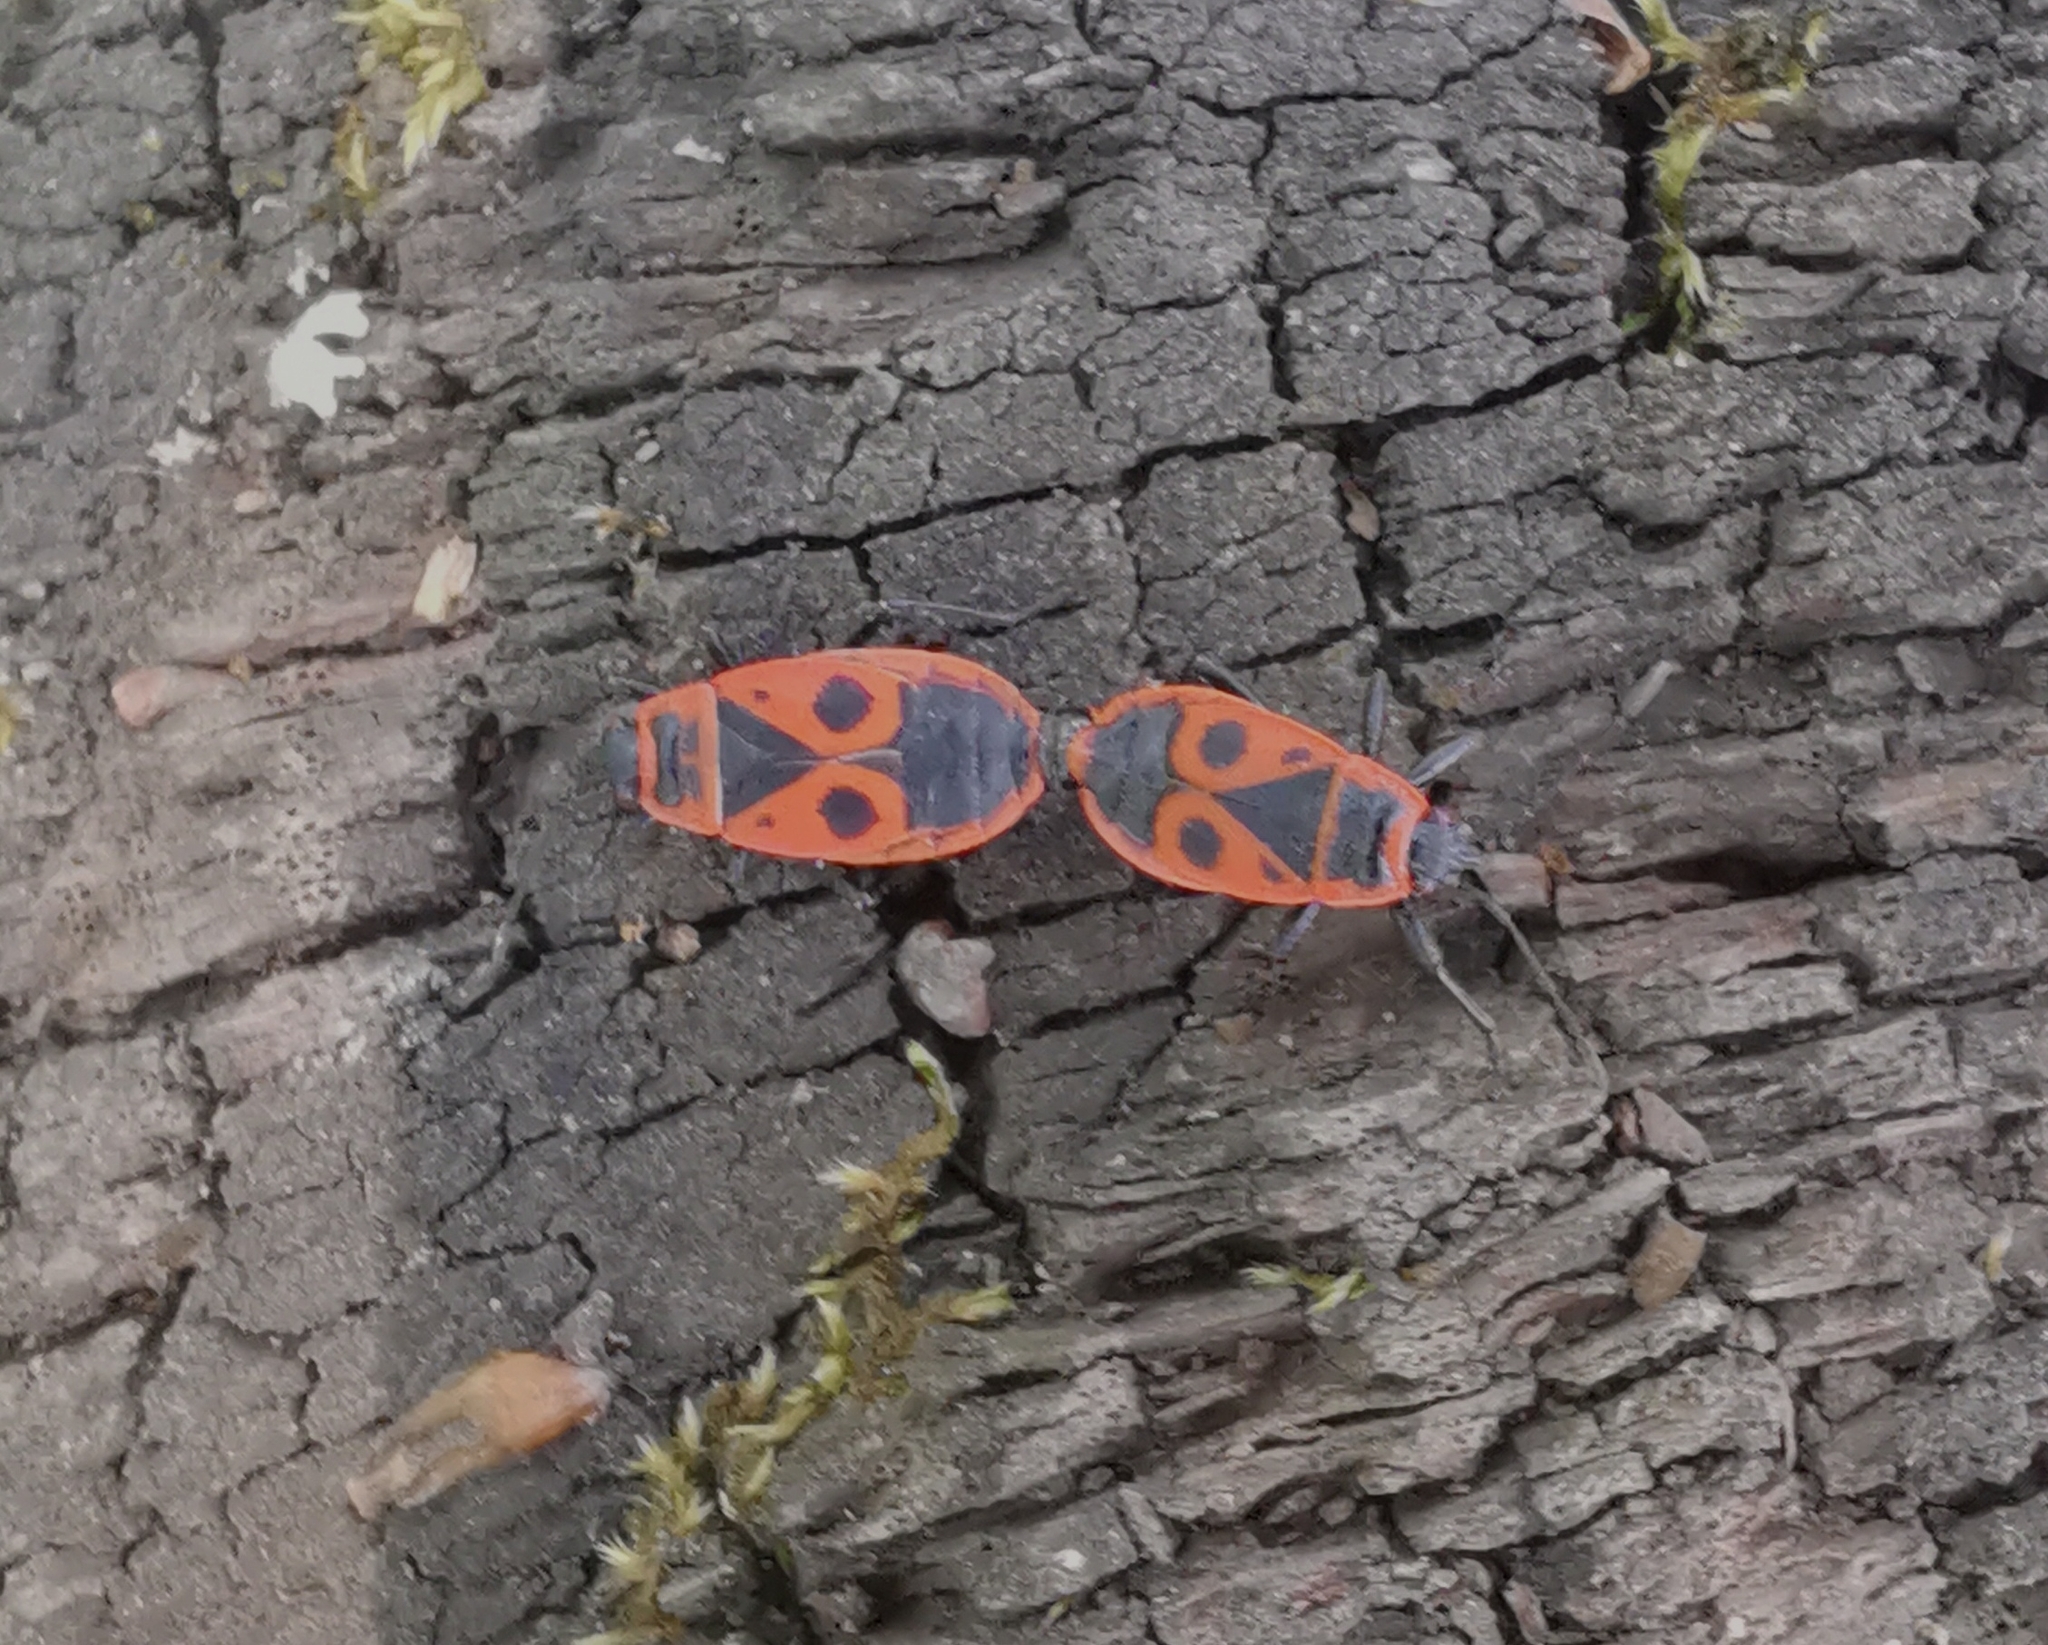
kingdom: Animalia
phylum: Arthropoda
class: Insecta
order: Hemiptera
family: Pyrrhocoridae
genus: Pyrrhocoris
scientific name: Pyrrhocoris apterus
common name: Firebug
